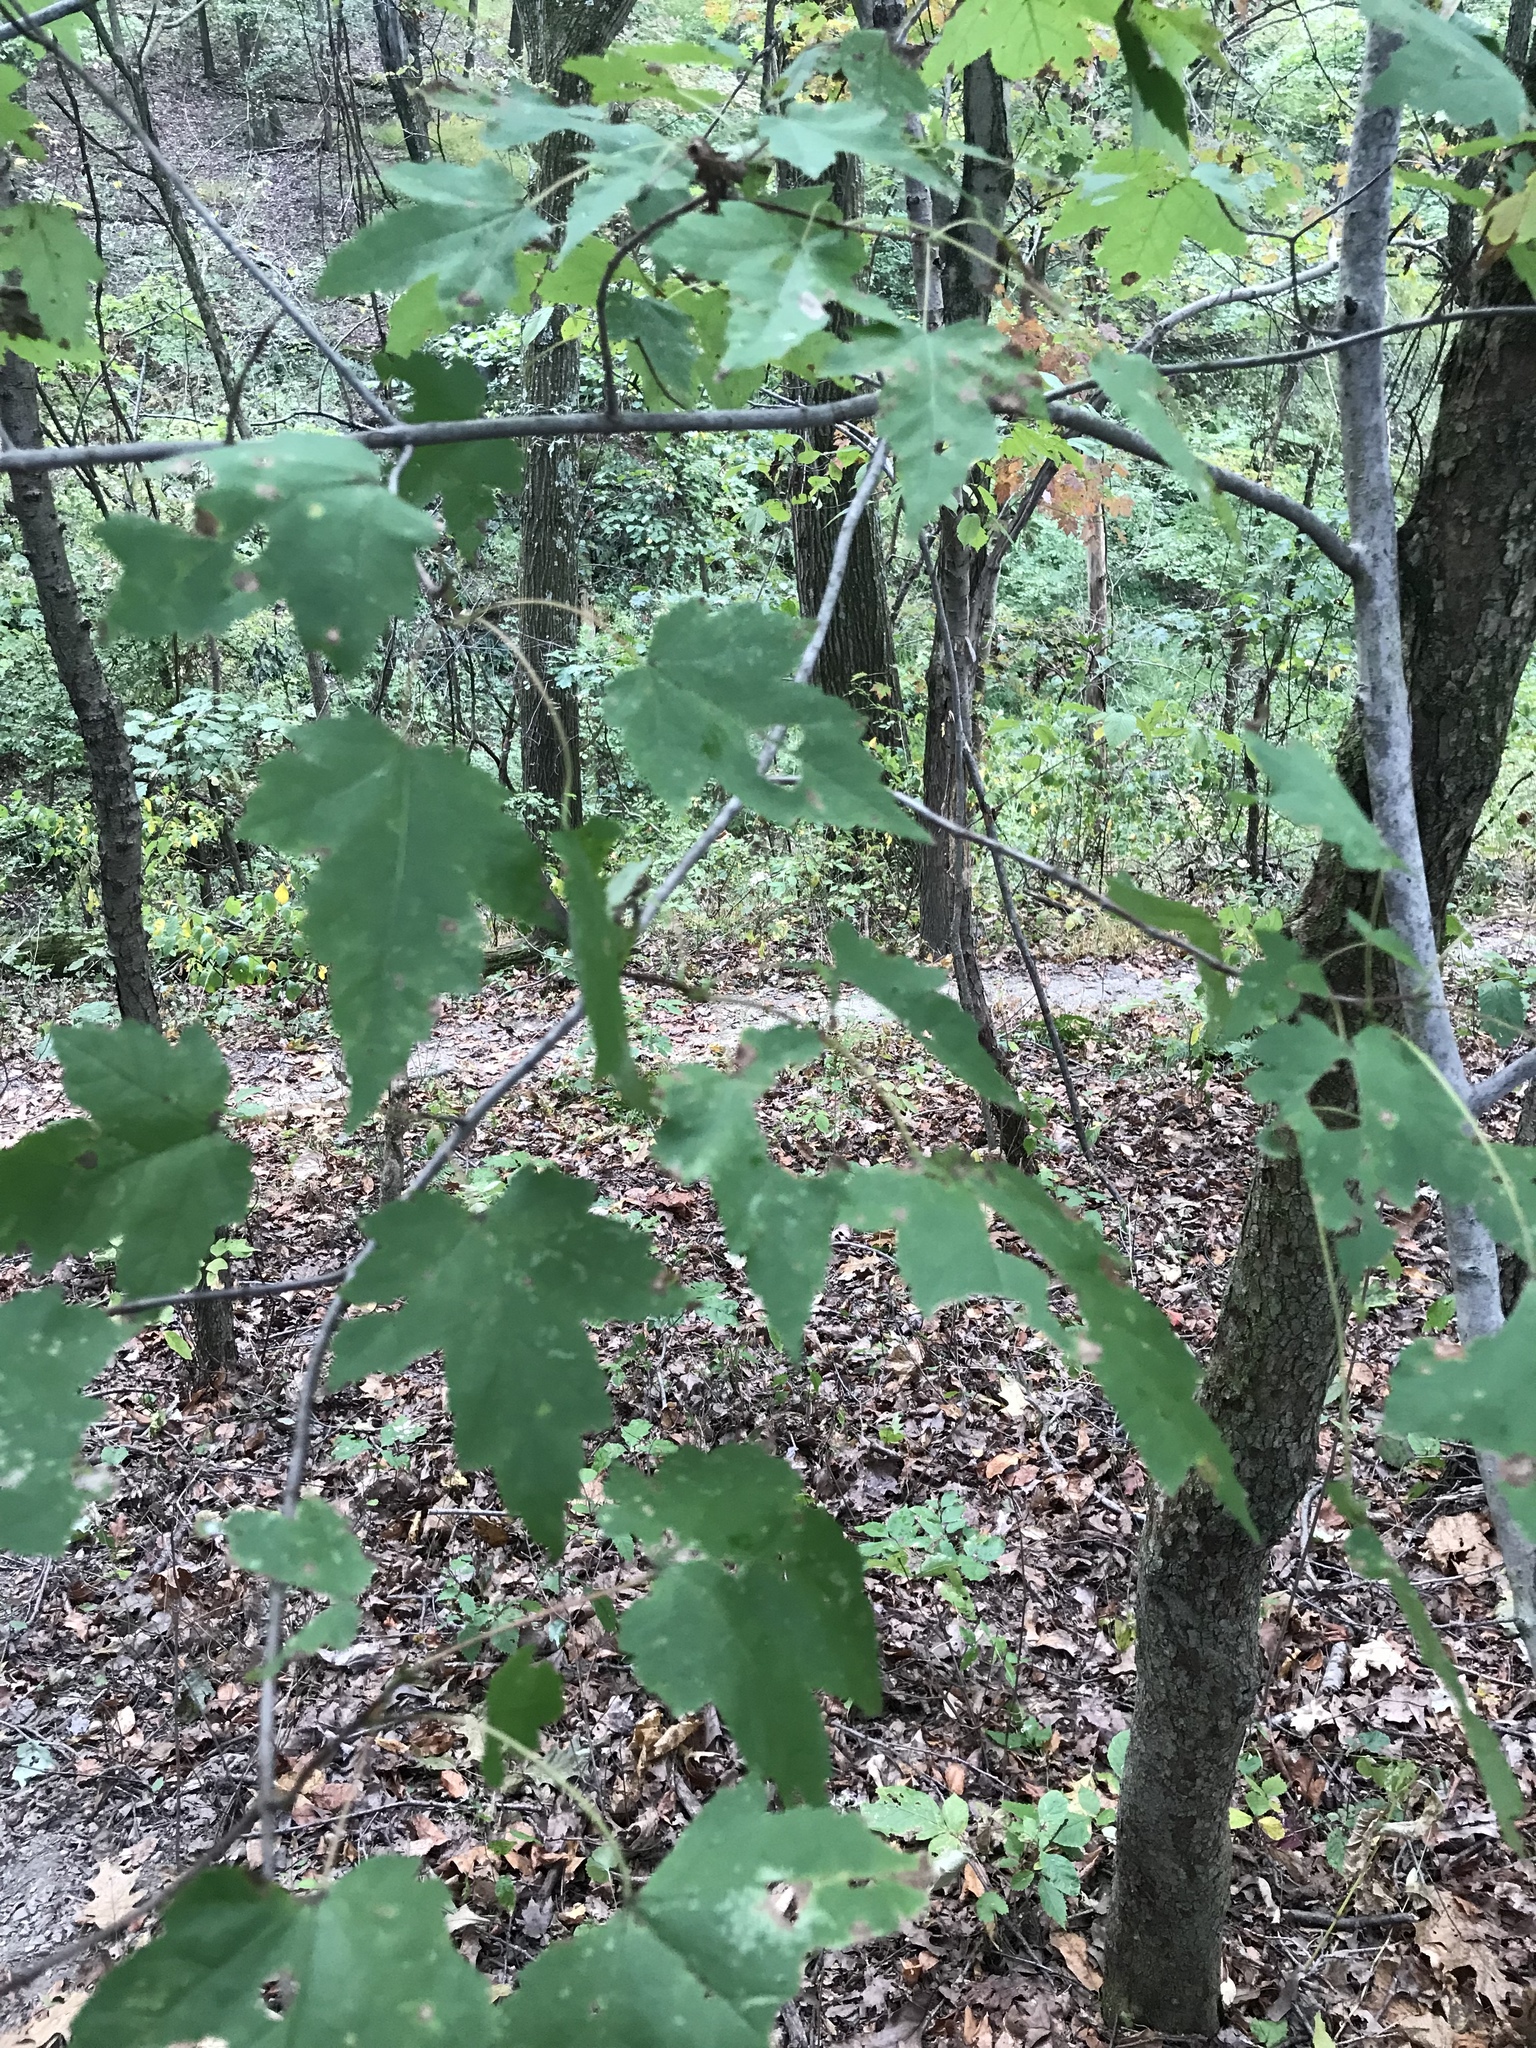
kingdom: Plantae
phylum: Tracheophyta
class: Magnoliopsida
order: Sapindales
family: Sapindaceae
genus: Acer
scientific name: Acer rubrum
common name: Red maple
